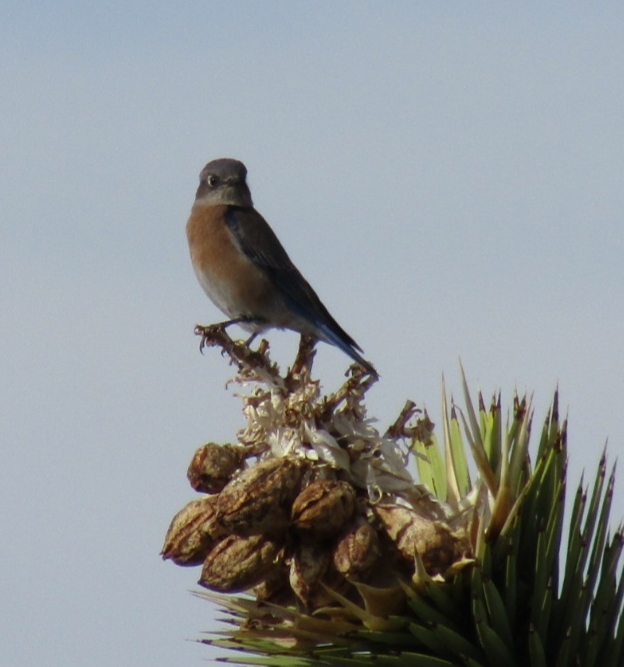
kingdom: Animalia
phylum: Chordata
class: Aves
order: Passeriformes
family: Turdidae
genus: Sialia
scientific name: Sialia mexicana
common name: Western bluebird
